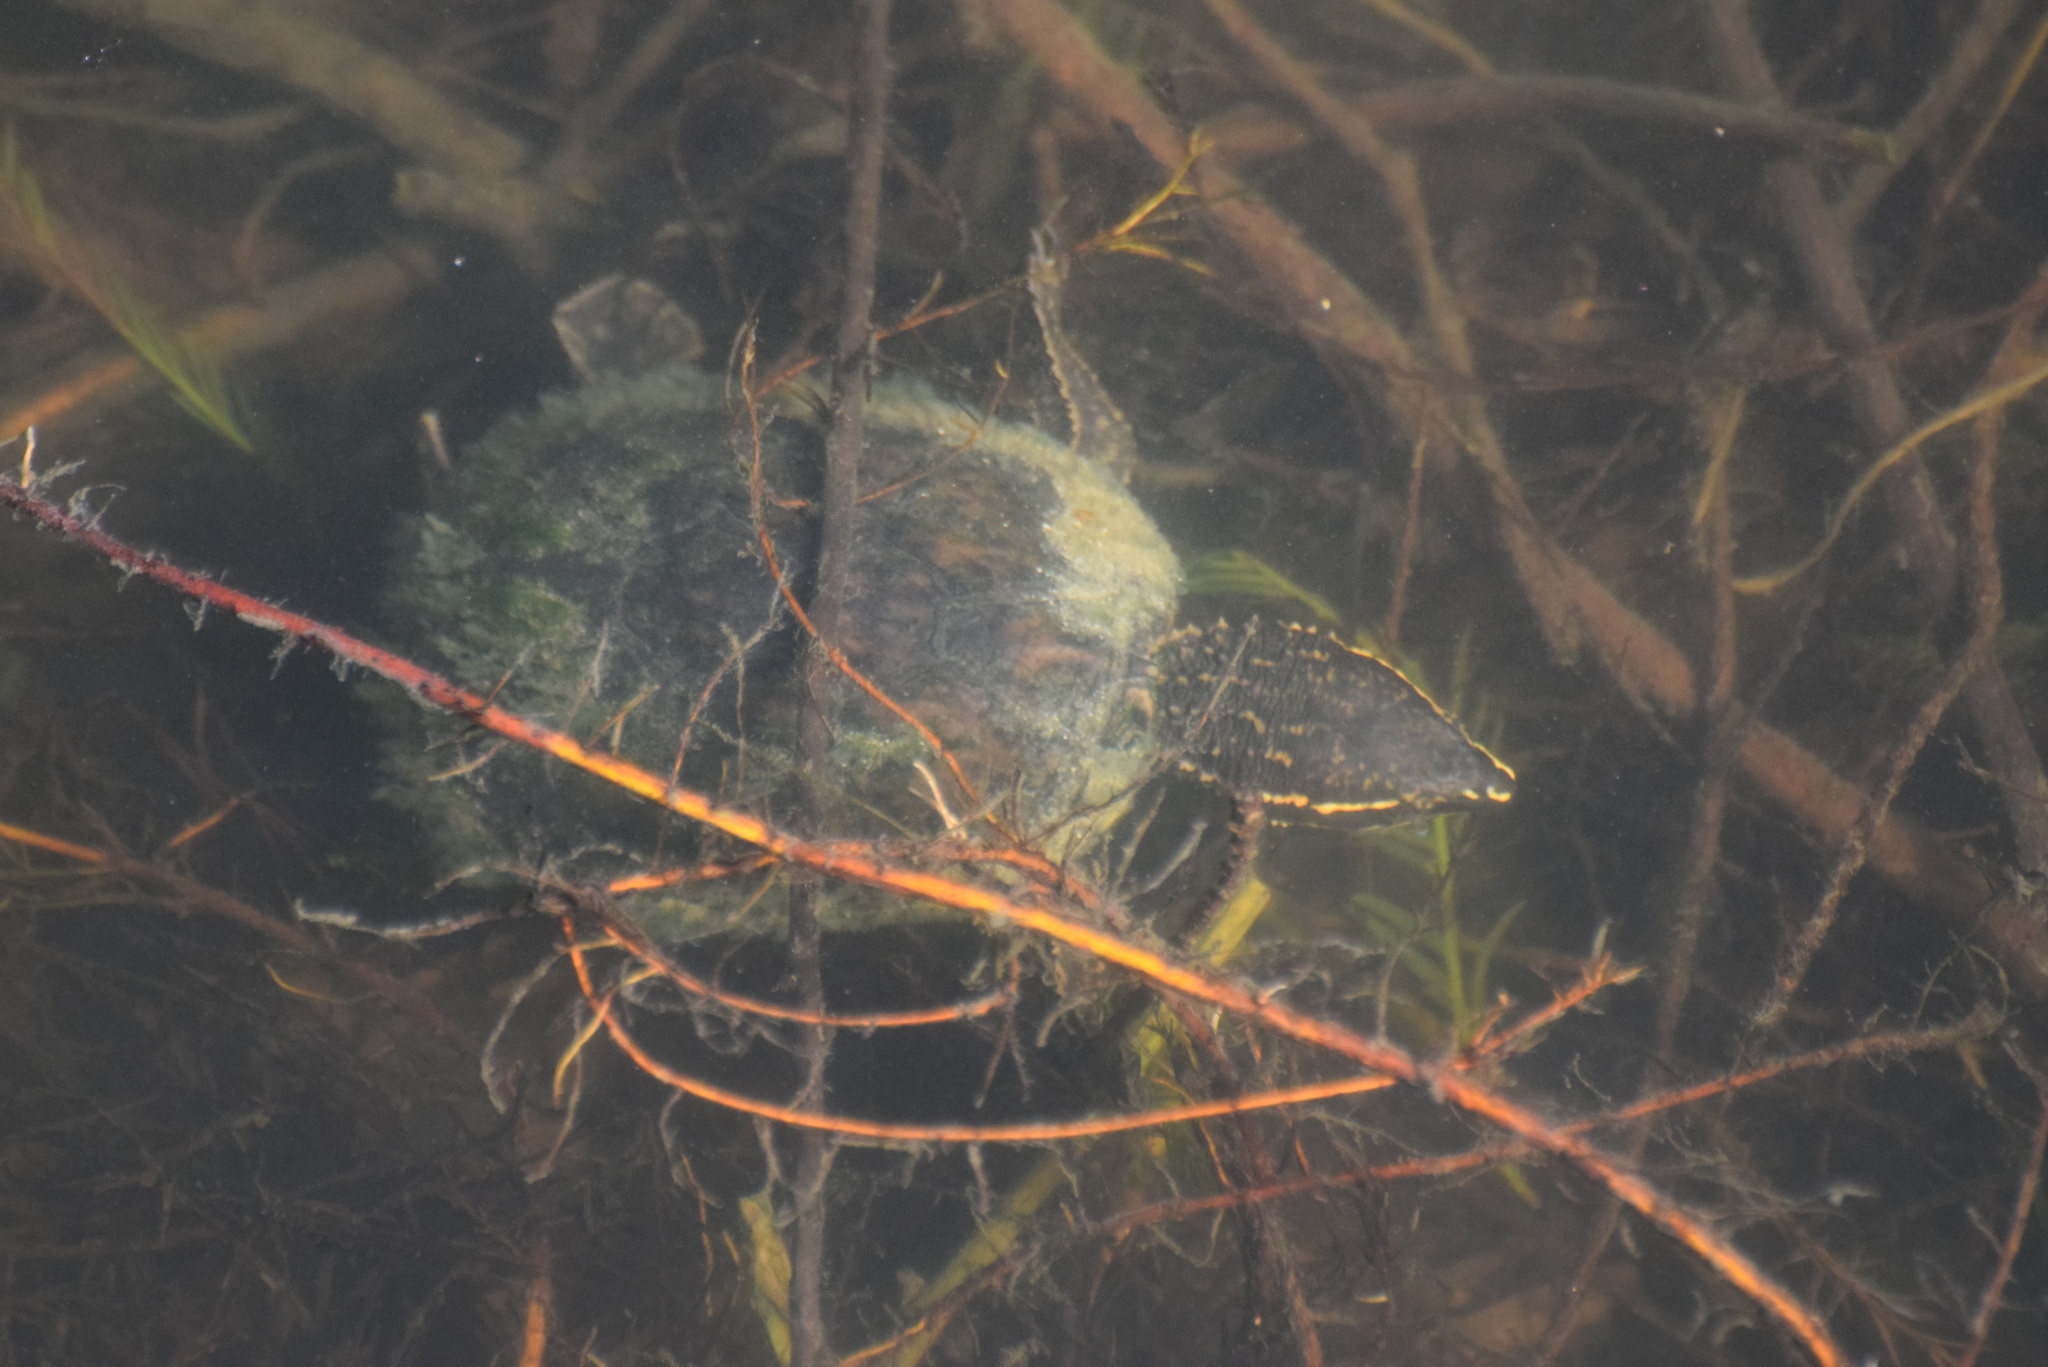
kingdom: Animalia
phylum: Chordata
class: Testudines
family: Kinosternidae
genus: Sternotherus
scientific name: Sternotherus odoratus
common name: Common musk turtle
